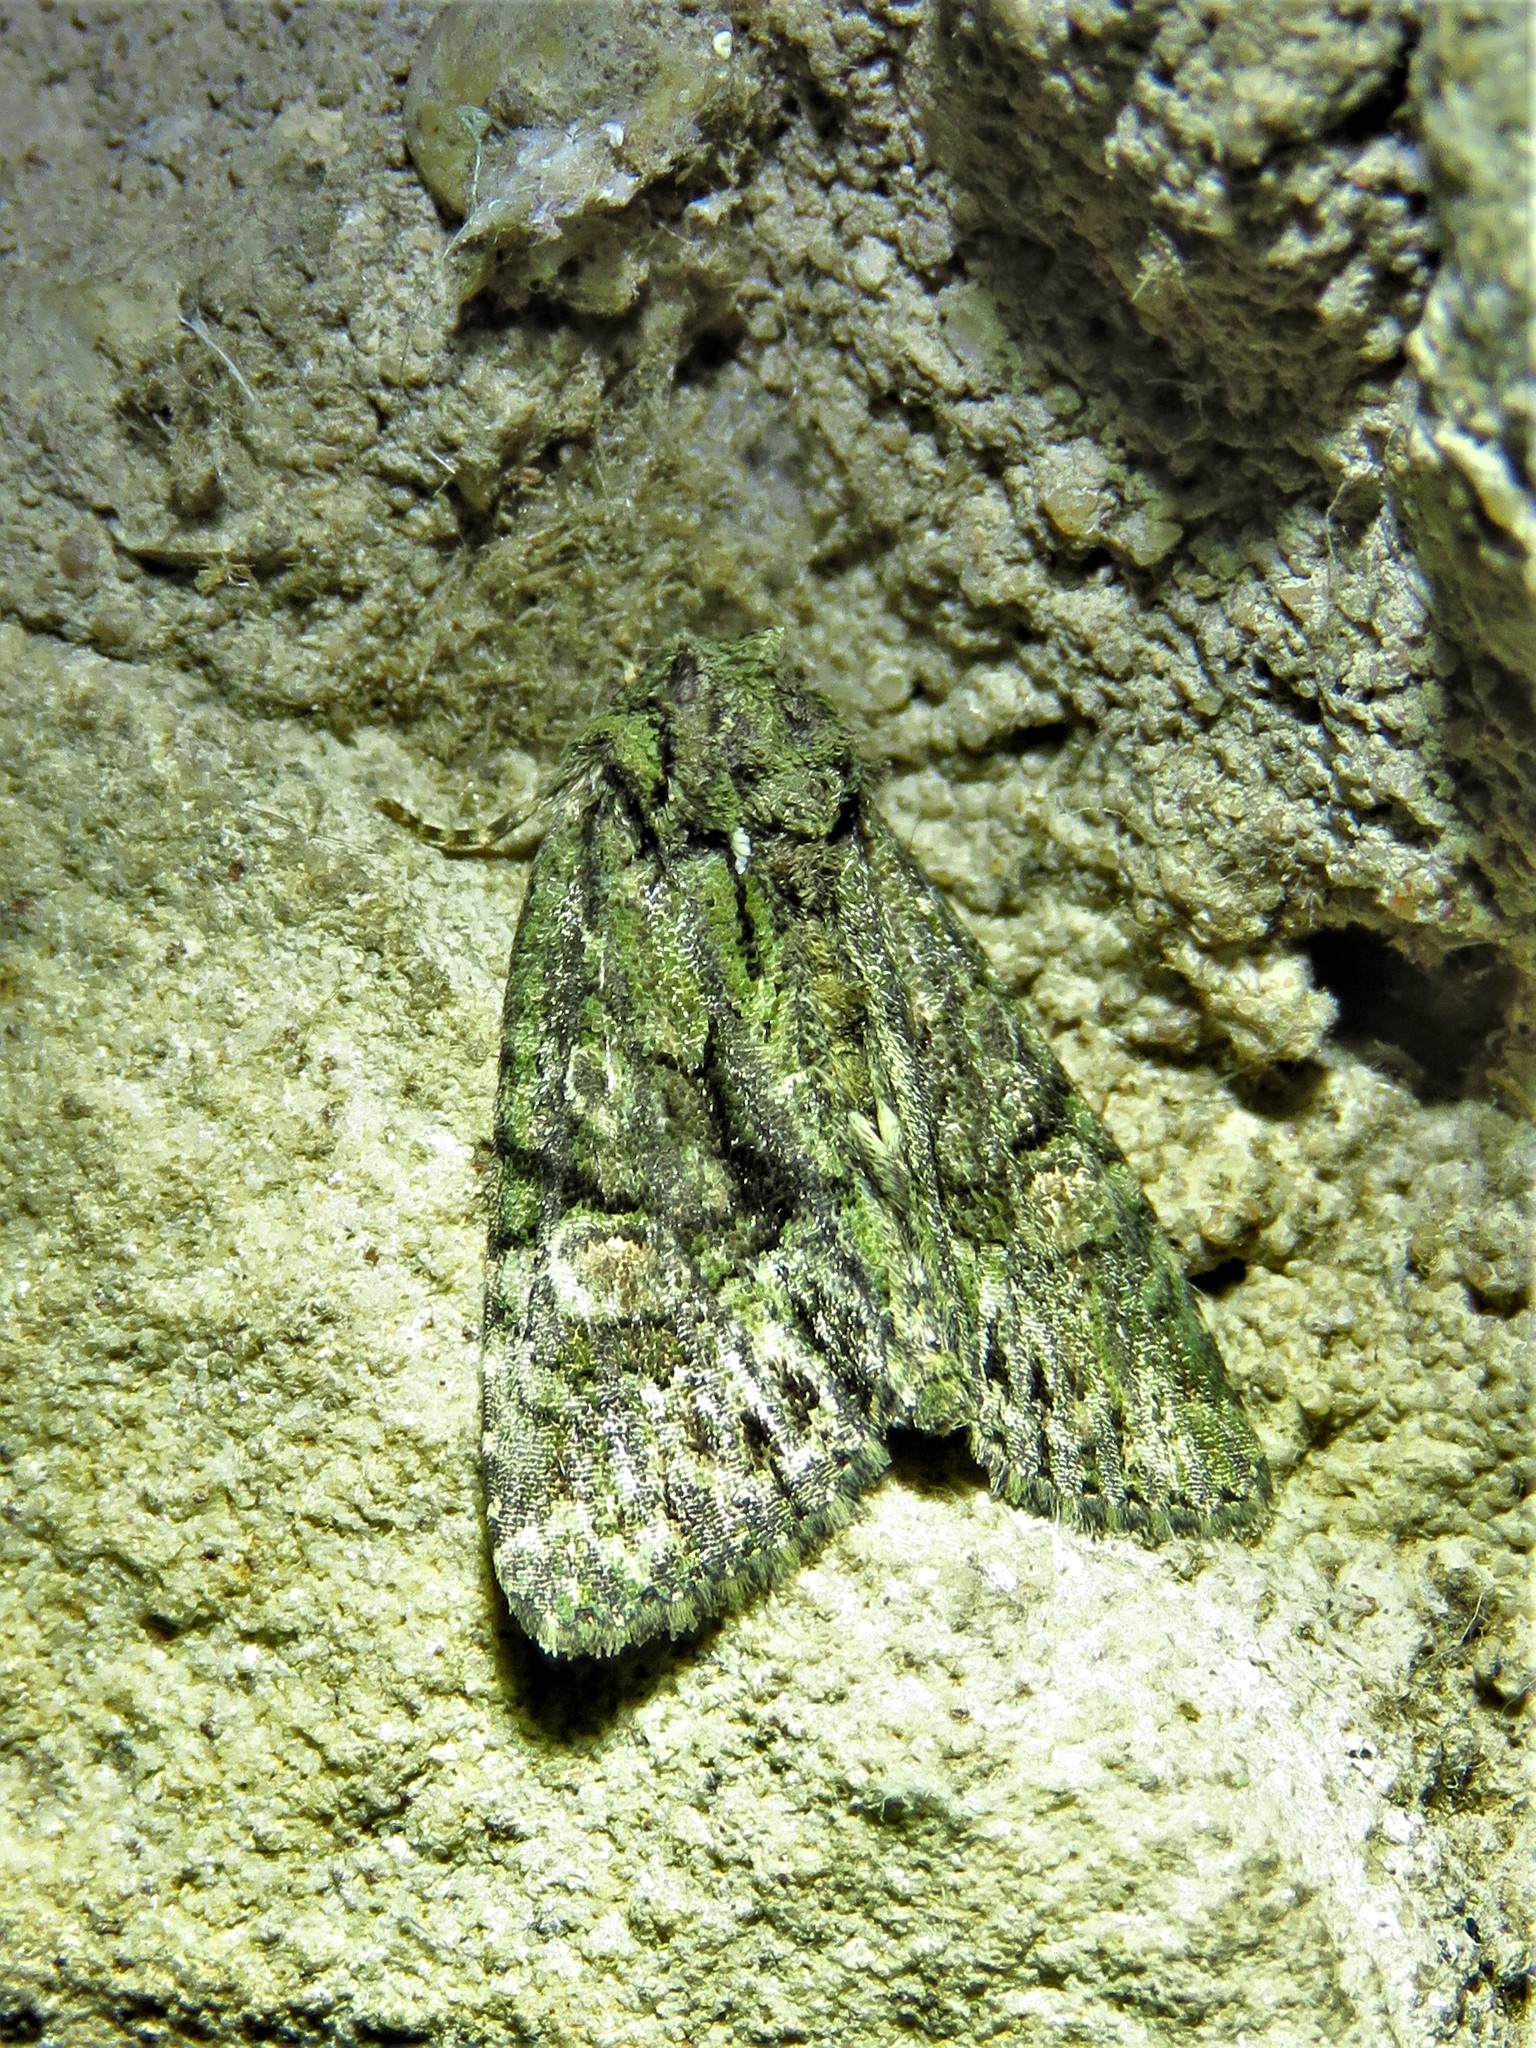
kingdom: Animalia
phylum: Arthropoda
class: Insecta
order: Lepidoptera
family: Noctuidae
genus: Phosphila
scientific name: Phosphila miselioides
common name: Spotted phosphila moth
